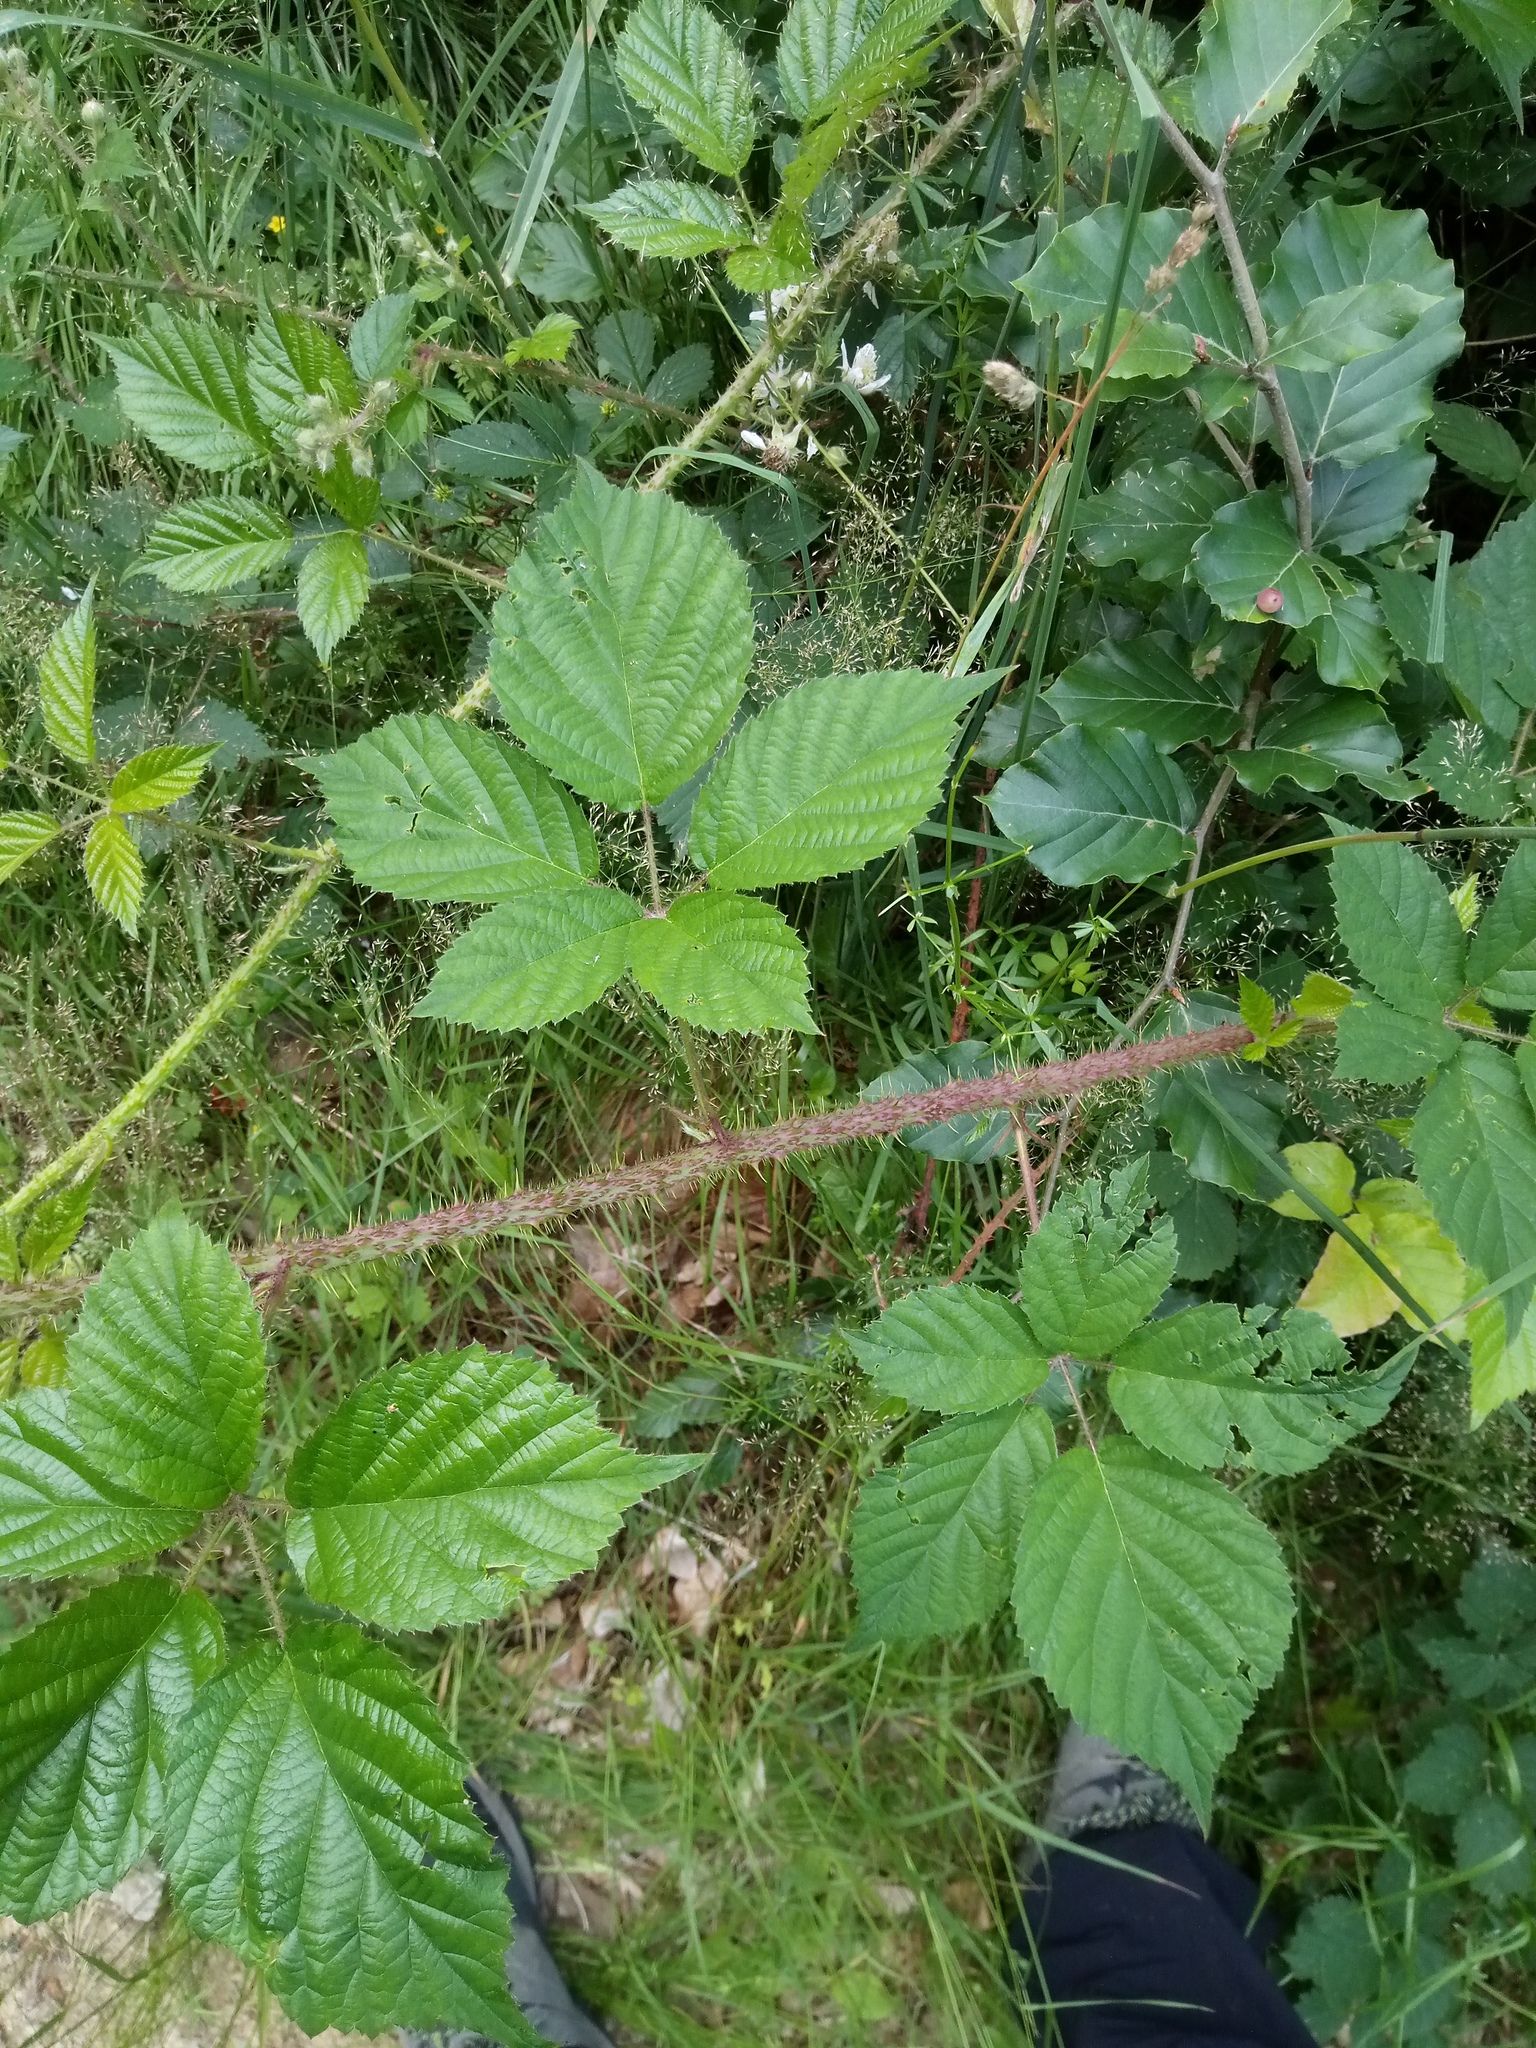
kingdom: Plantae
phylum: Tracheophyta
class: Magnoliopsida
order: Rosales
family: Rosaceae
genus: Rubus
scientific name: Rubus koehleri
